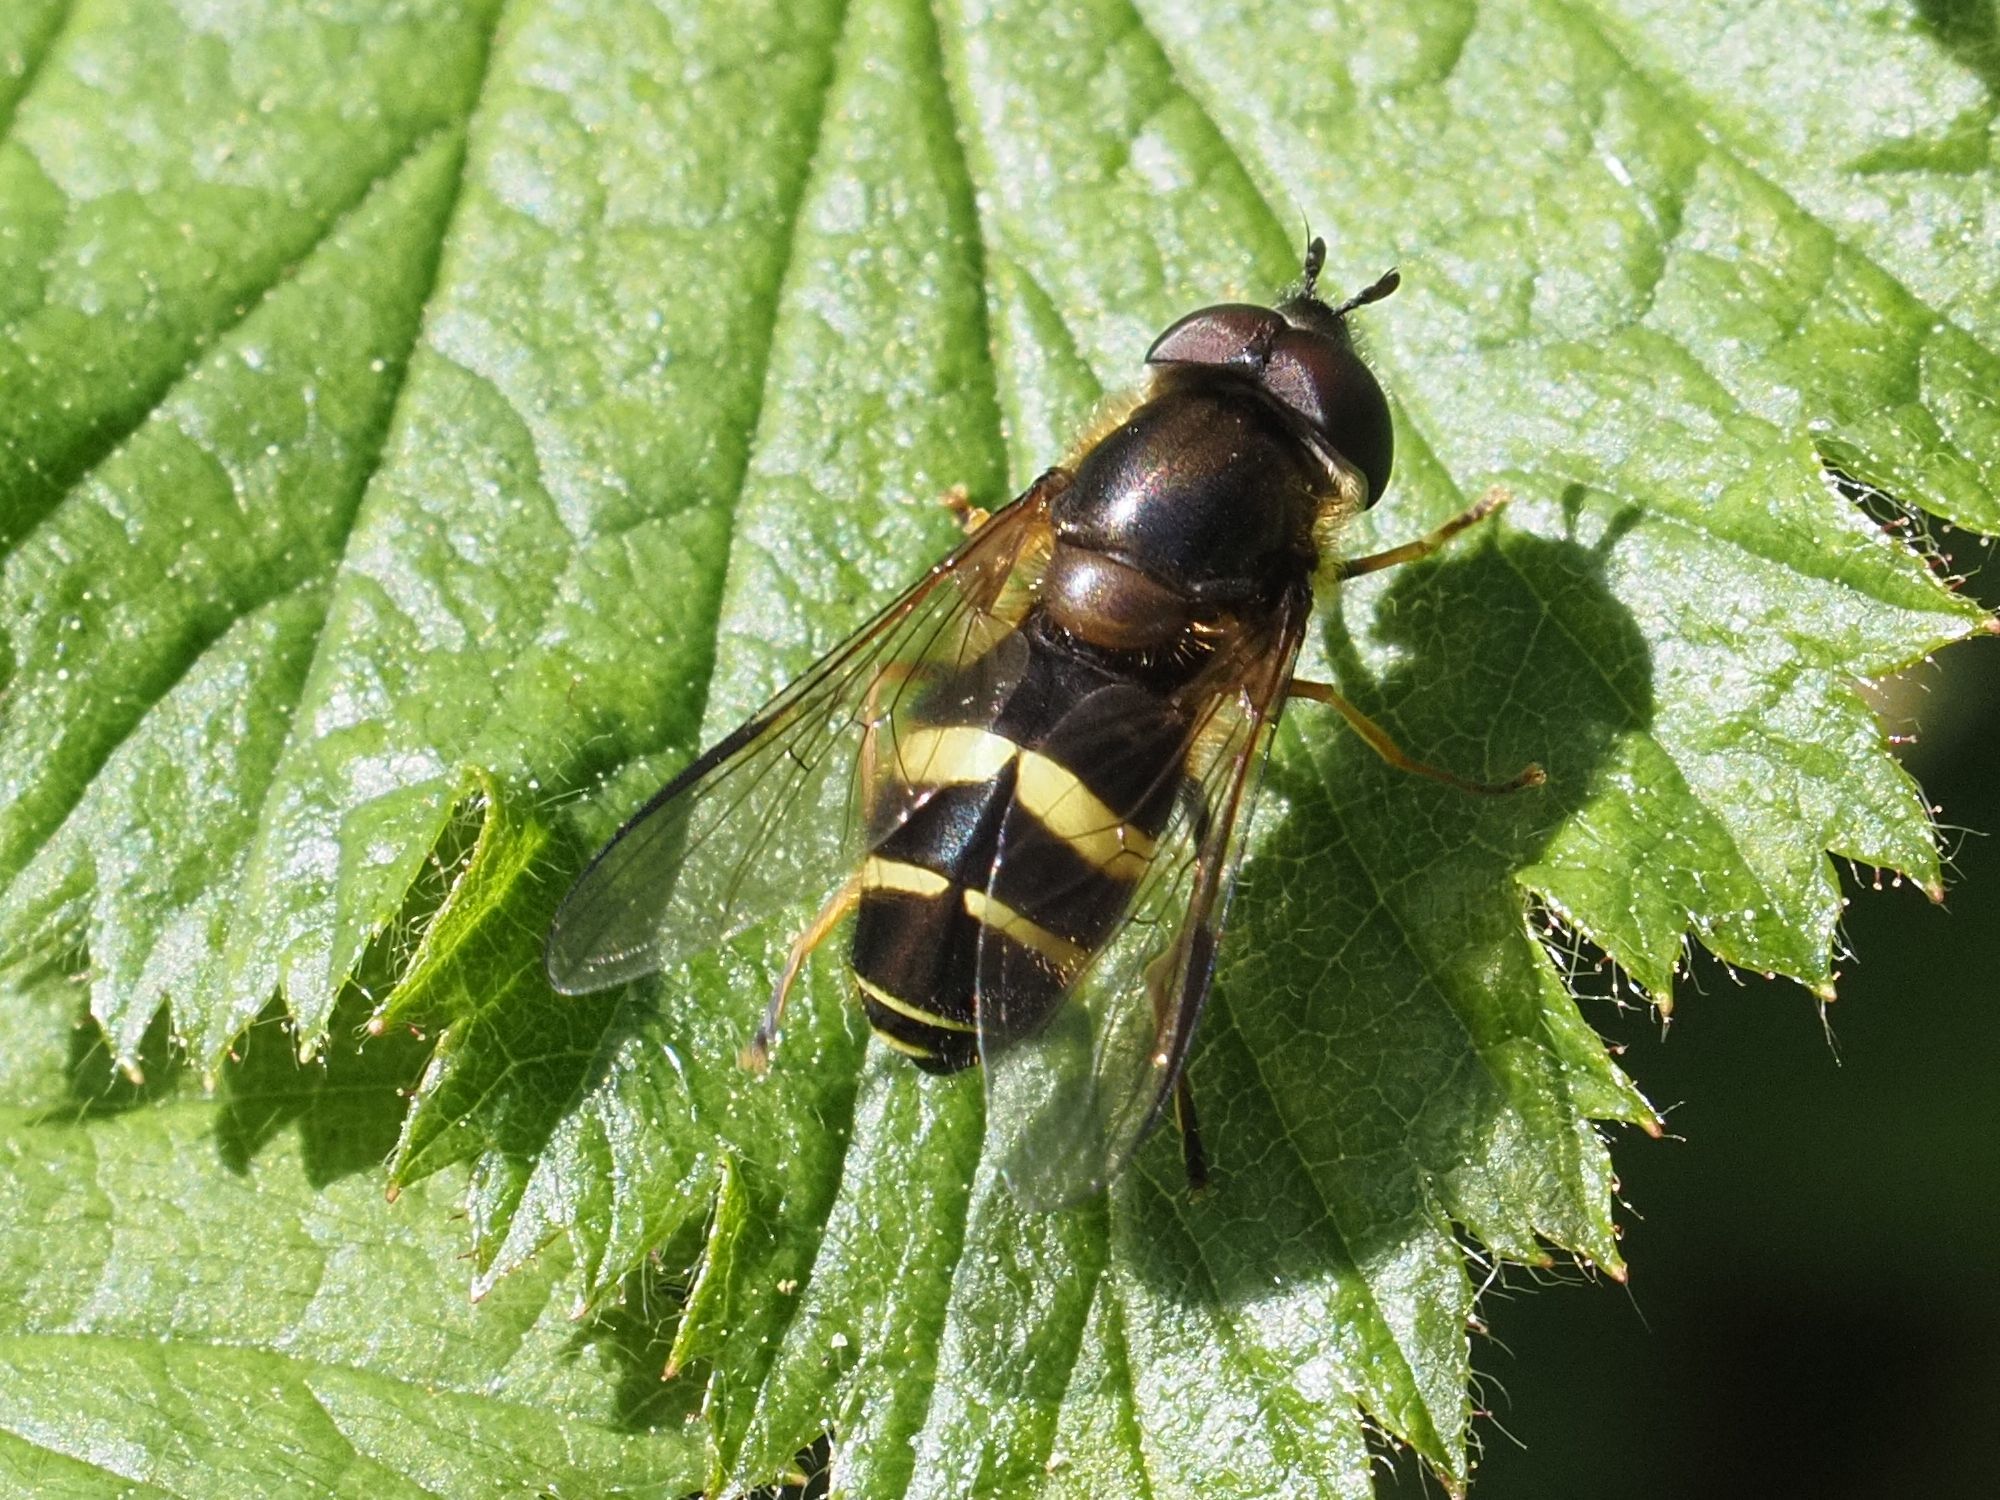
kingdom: Animalia
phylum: Arthropoda
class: Insecta
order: Diptera
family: Syrphidae
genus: Dasysyrphus
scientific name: Dasysyrphus tricinctus
